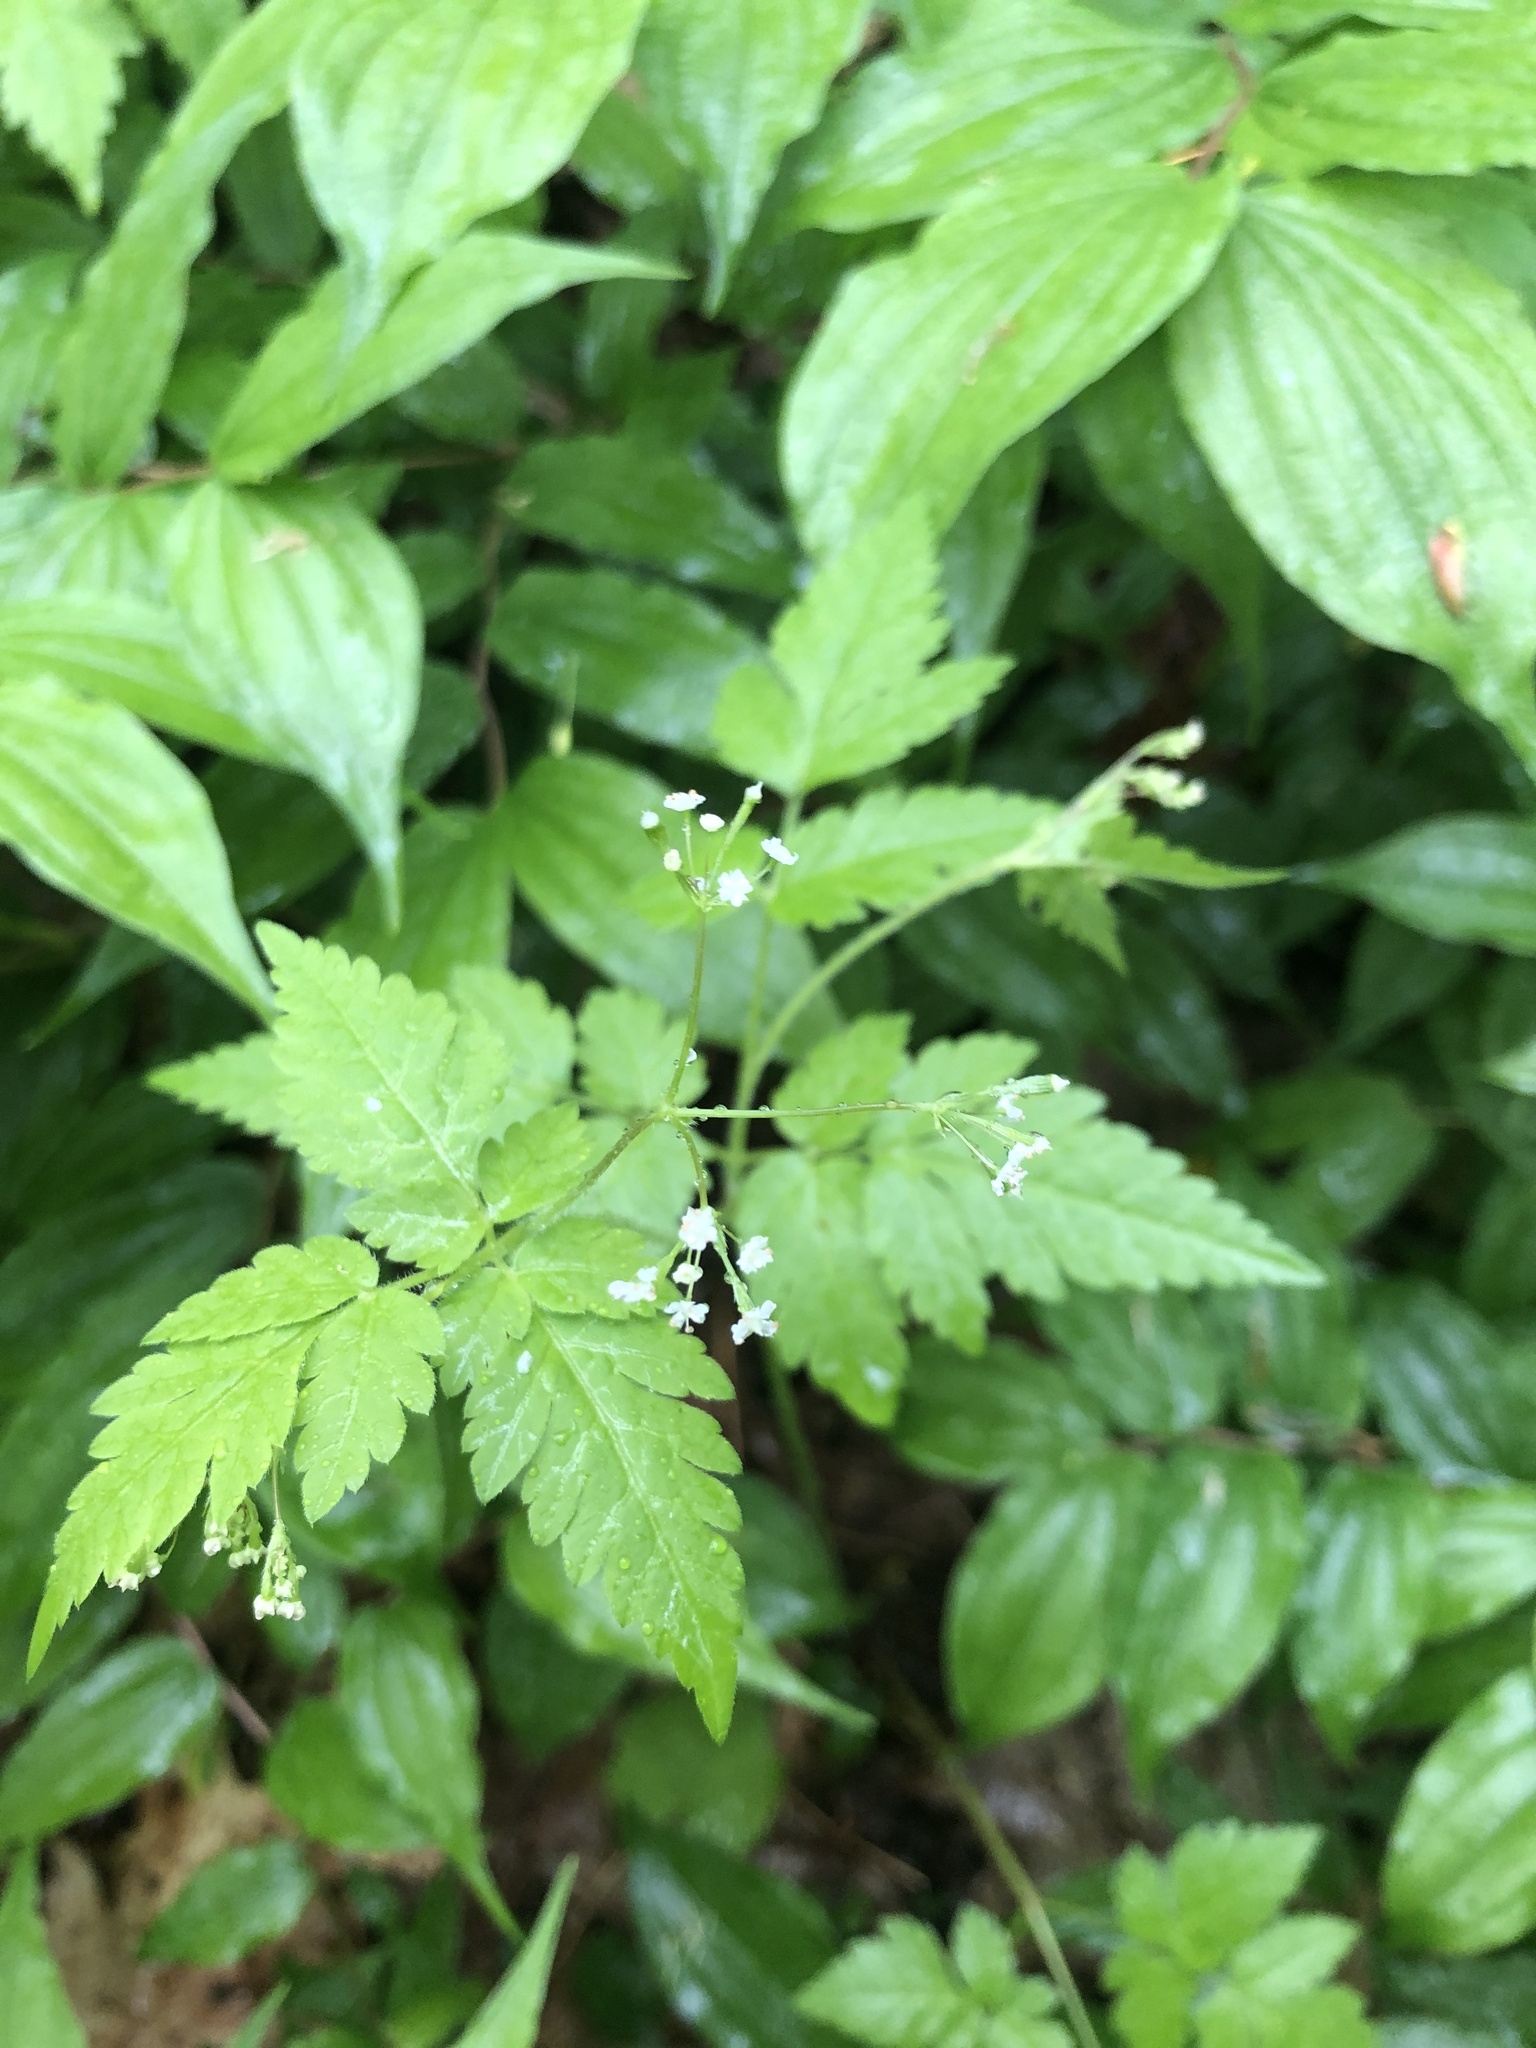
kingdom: Plantae
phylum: Tracheophyta
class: Magnoliopsida
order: Apiales
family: Apiaceae
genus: Osmorhiza
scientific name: Osmorhiza claytonii
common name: Hairy sweet cicely
